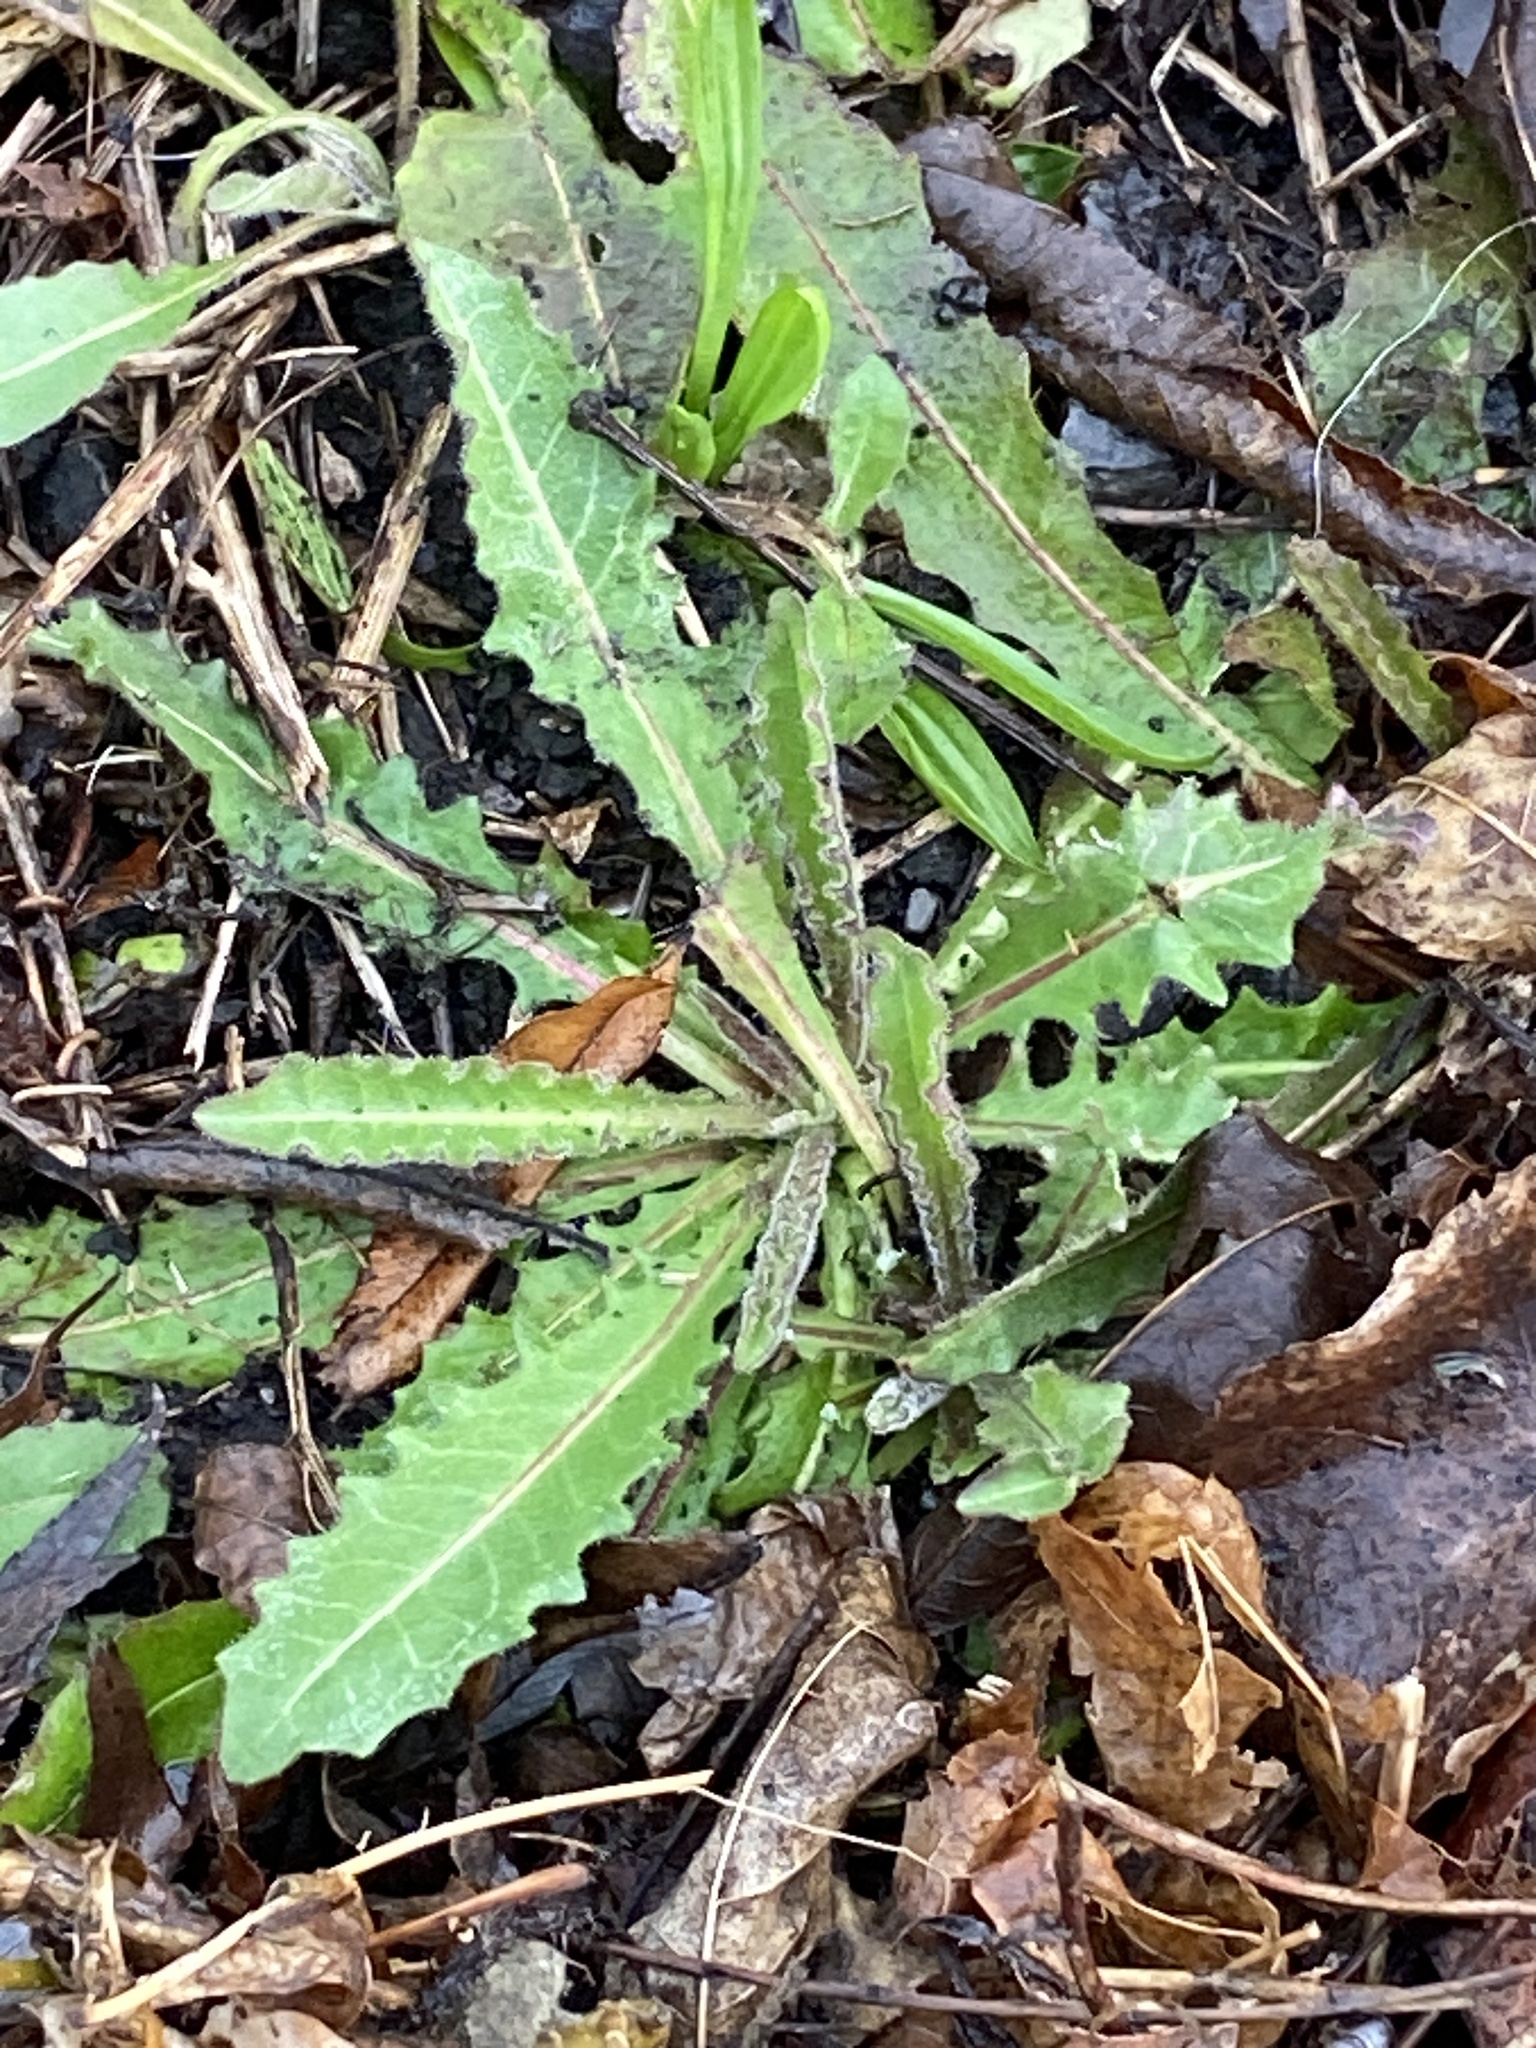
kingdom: Plantae
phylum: Tracheophyta
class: Magnoliopsida
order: Asterales
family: Asteraceae
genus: Picris
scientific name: Picris hieracioides
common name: Hawkweed oxtongue
